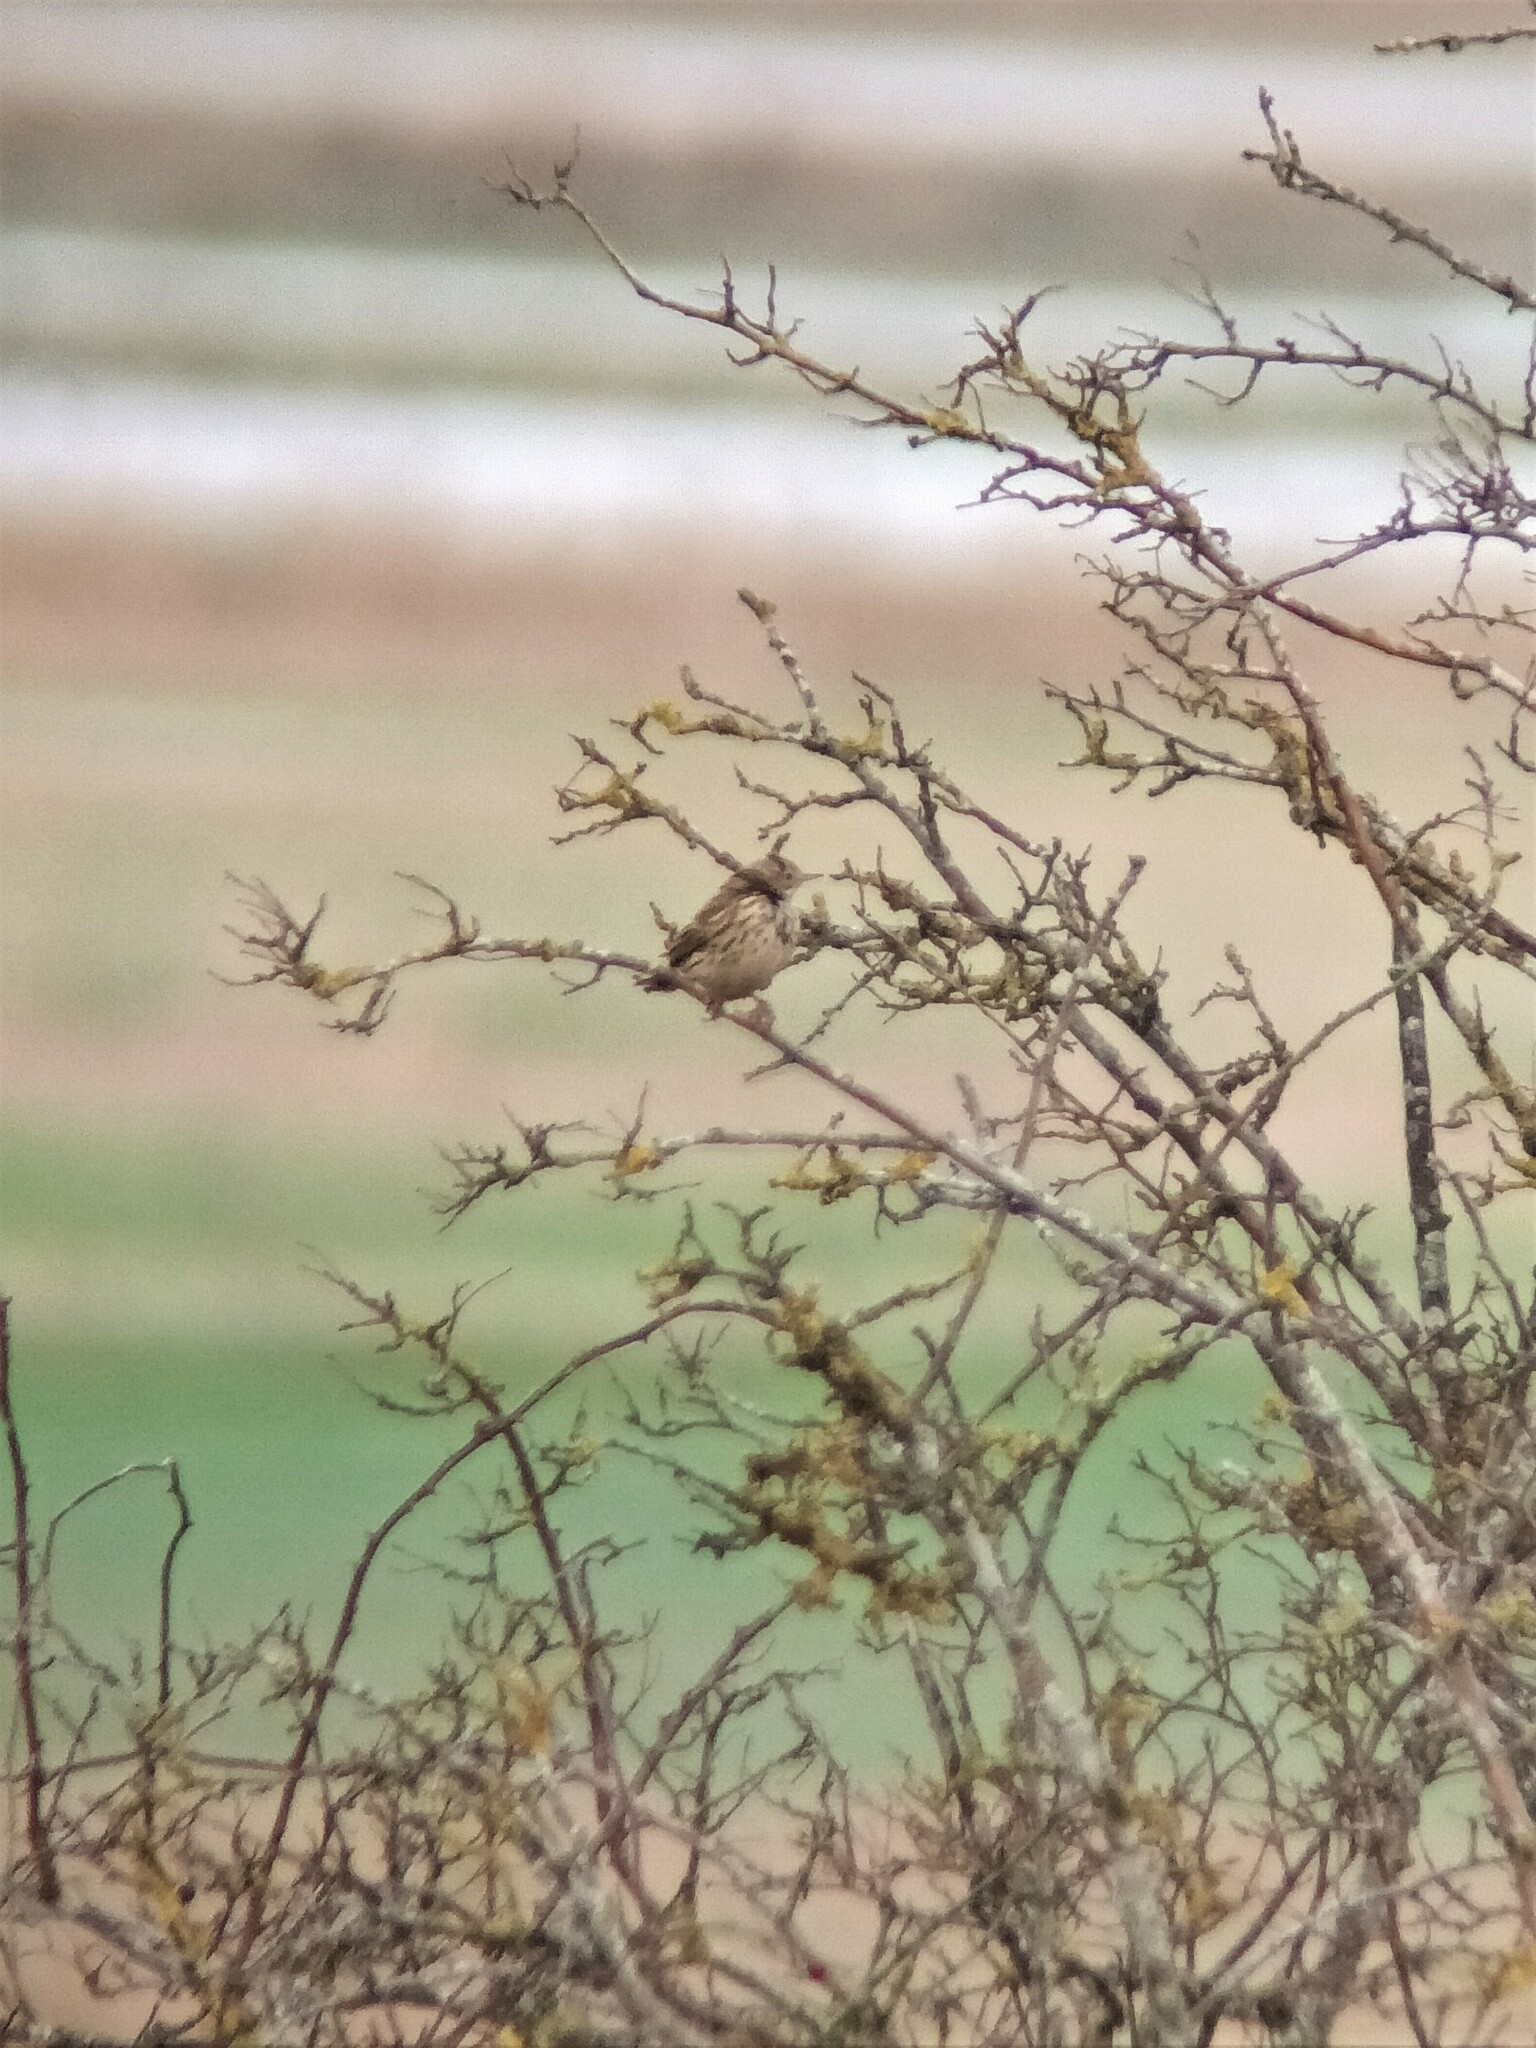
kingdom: Animalia
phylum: Chordata
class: Aves
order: Passeriformes
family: Motacillidae
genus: Anthus
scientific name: Anthus pratensis
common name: Meadow pipit
